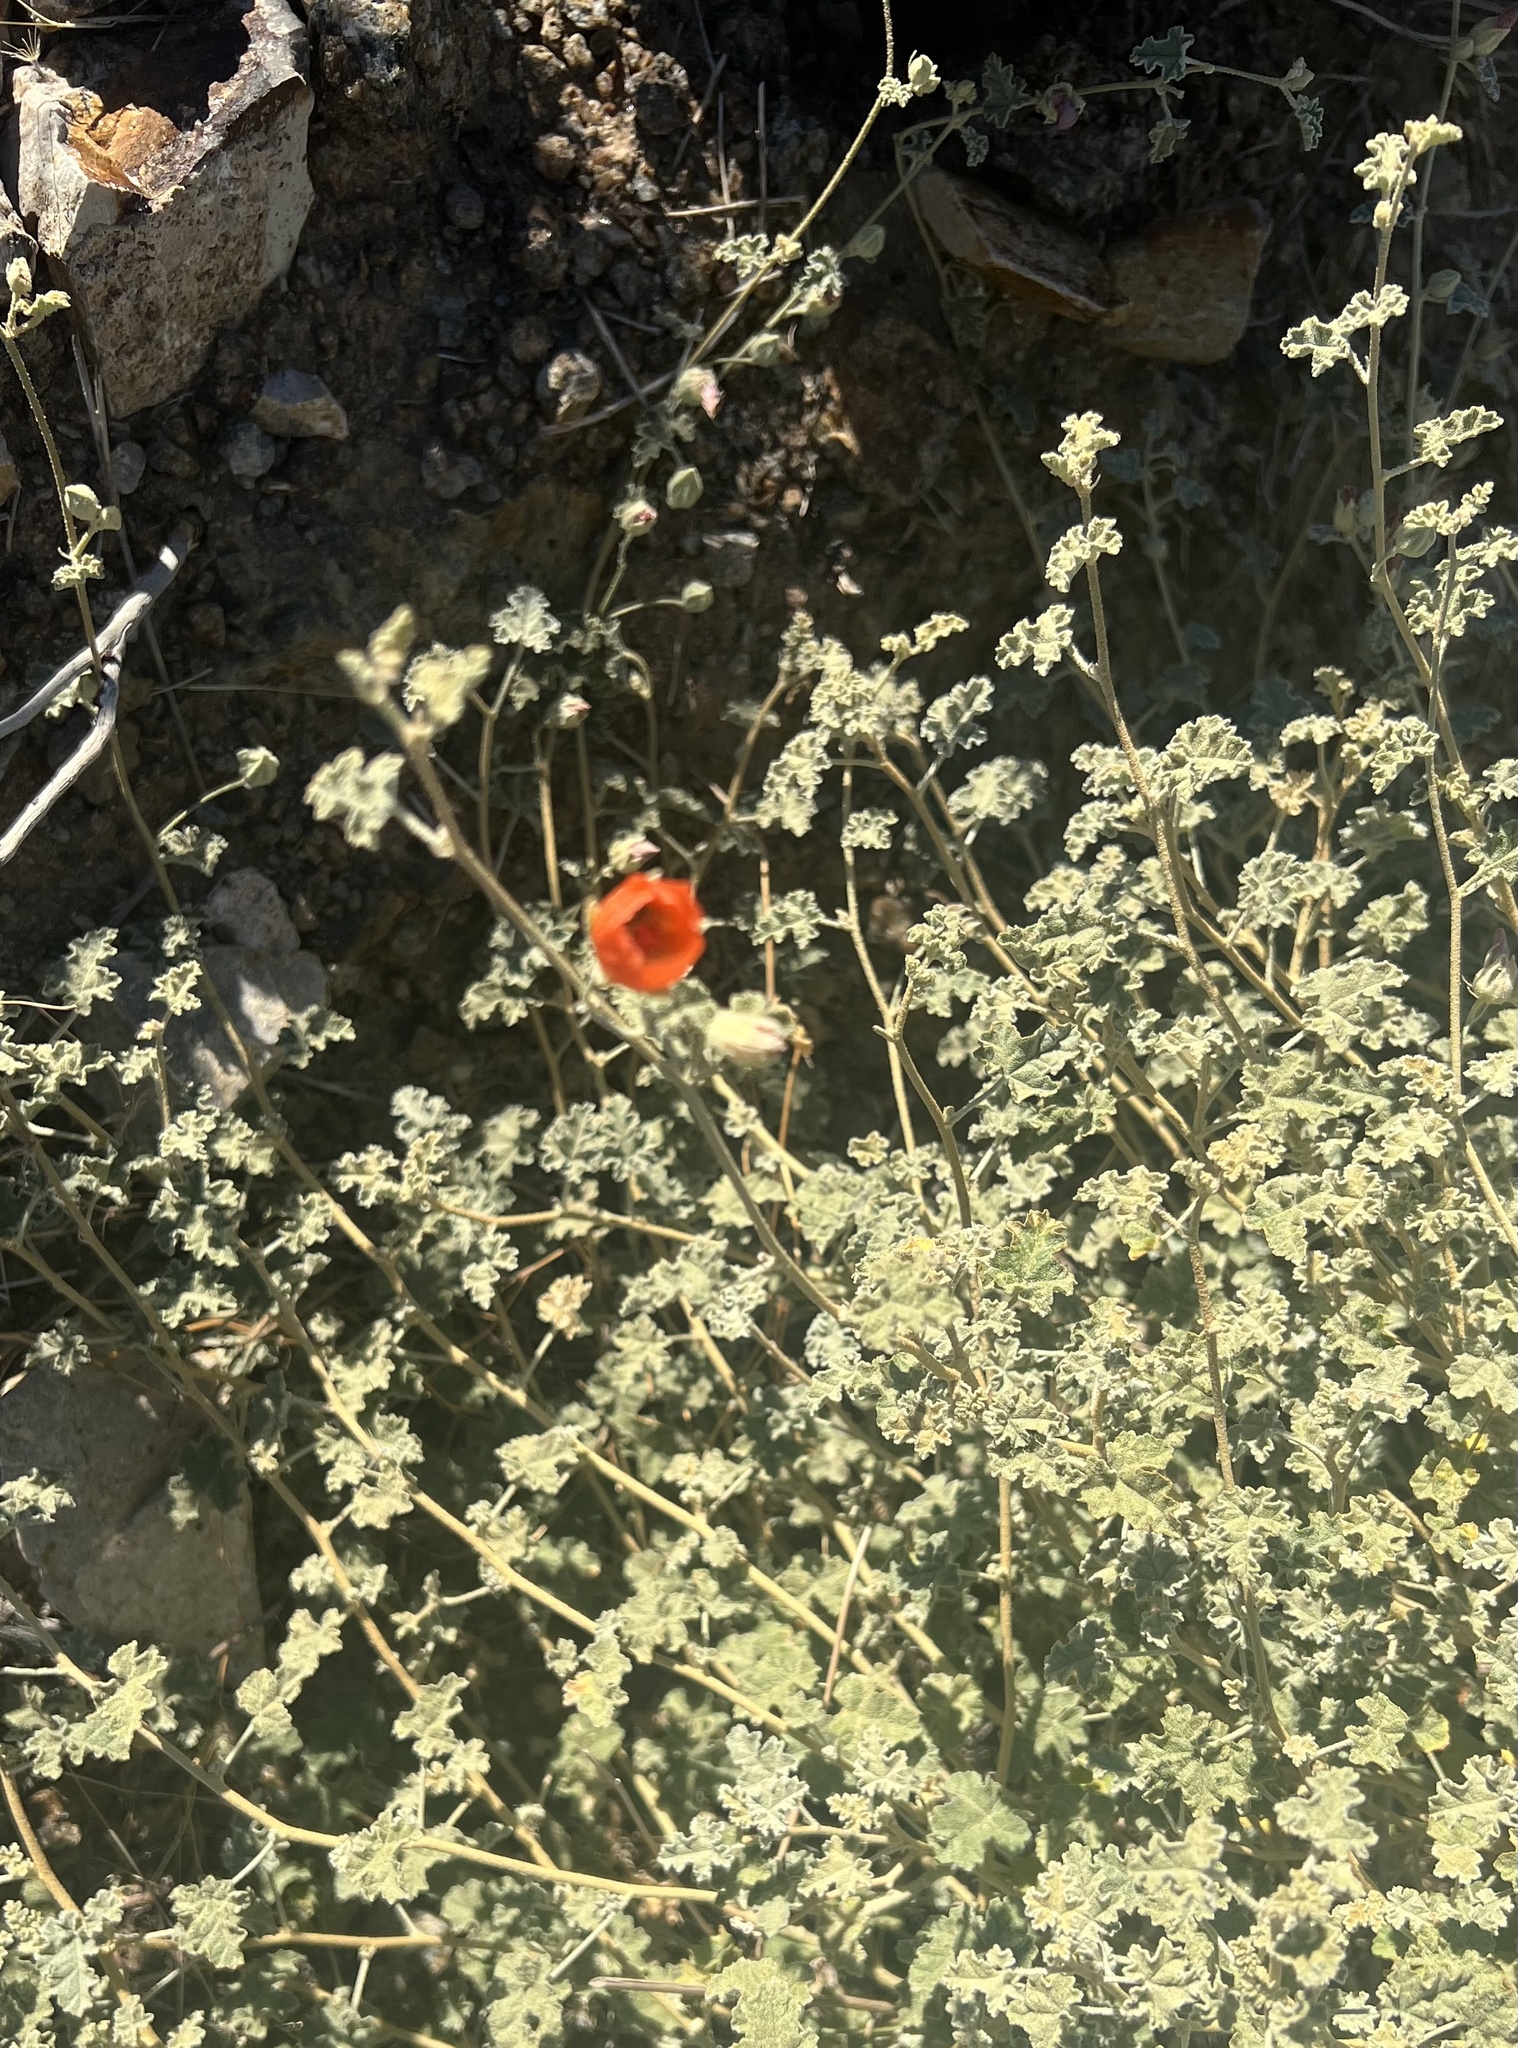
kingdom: Plantae
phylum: Tracheophyta
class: Magnoliopsida
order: Malvales
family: Malvaceae
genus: Sphaeralcea
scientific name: Sphaeralcea ambigua
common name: Apricot globe-mallow
